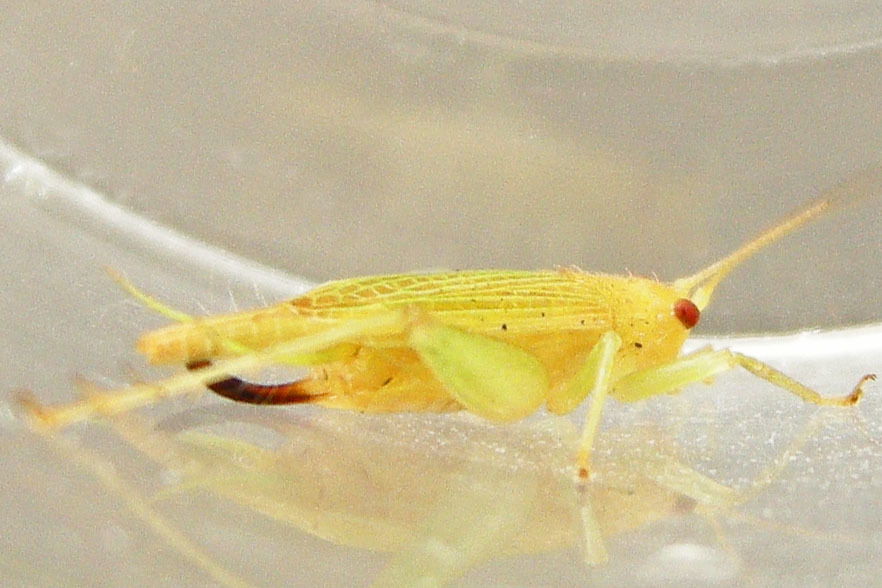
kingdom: Animalia
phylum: Arthropoda
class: Insecta
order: Orthoptera
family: Trigonidiidae
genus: Cyrtoxipha
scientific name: Cyrtoxipha columbiana
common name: Columbian trig
